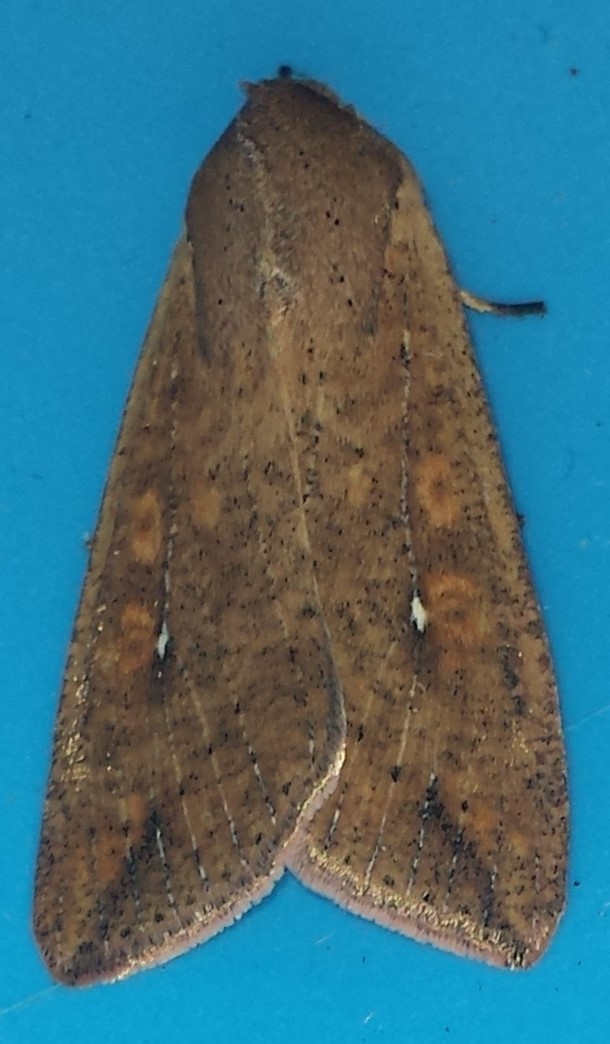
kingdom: Animalia
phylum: Arthropoda
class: Insecta
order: Lepidoptera
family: Noctuidae
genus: Mythimna
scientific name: Mythimna unipuncta
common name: White-speck
